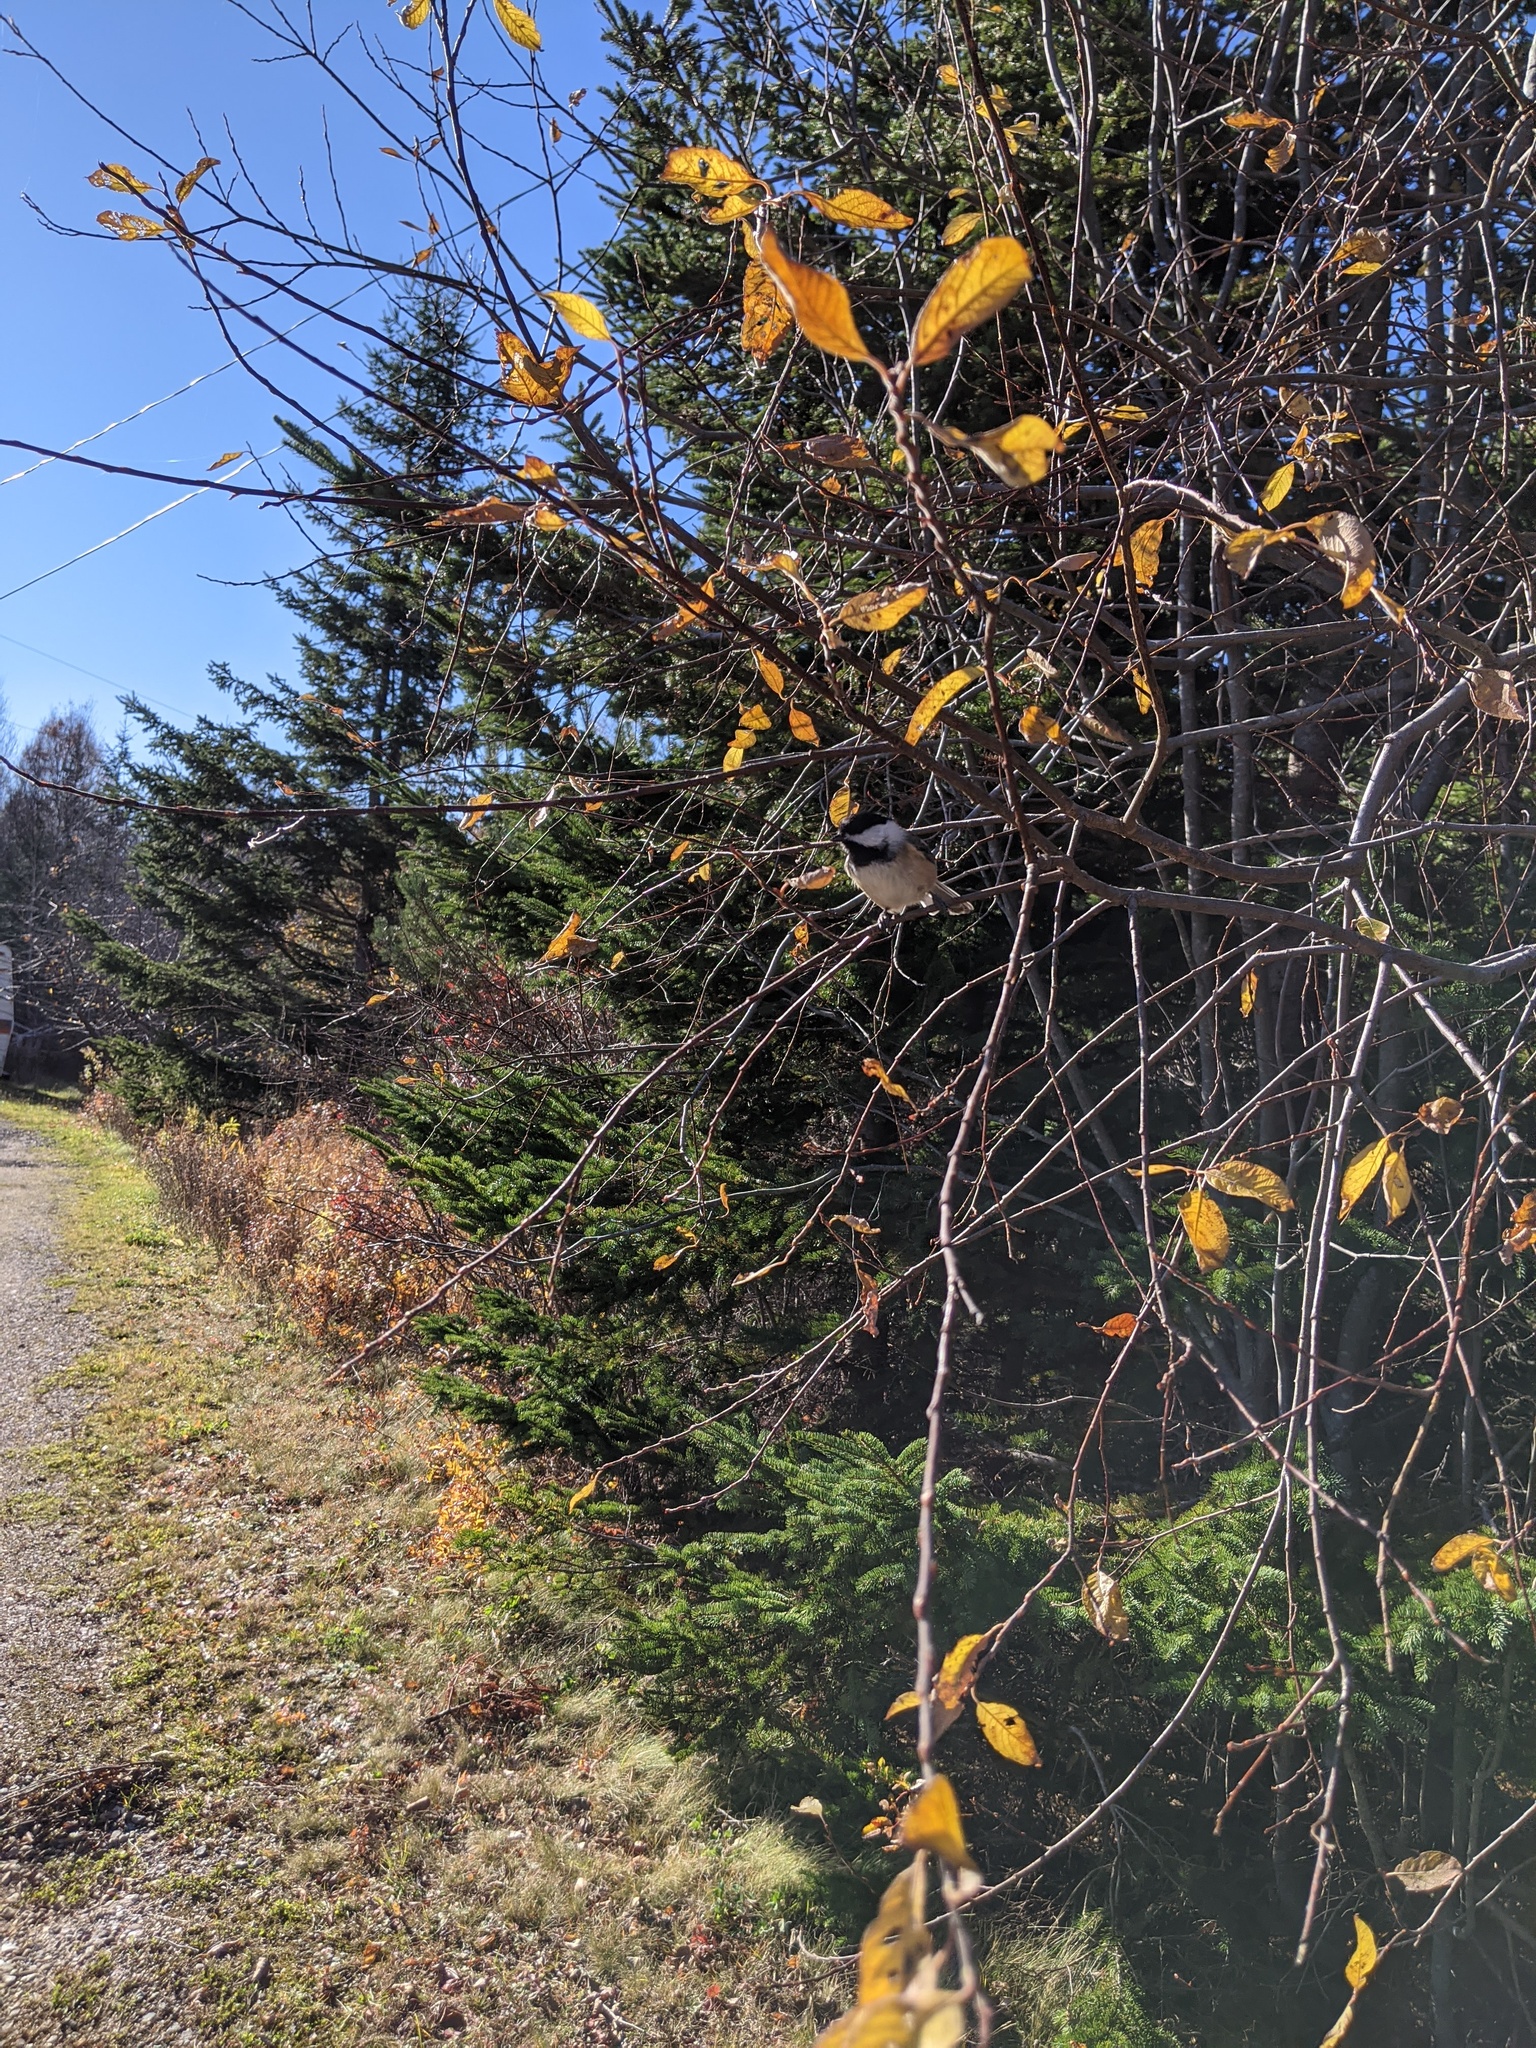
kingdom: Animalia
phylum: Chordata
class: Aves
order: Passeriformes
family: Paridae
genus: Poecile
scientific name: Poecile atricapillus
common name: Black-capped chickadee
